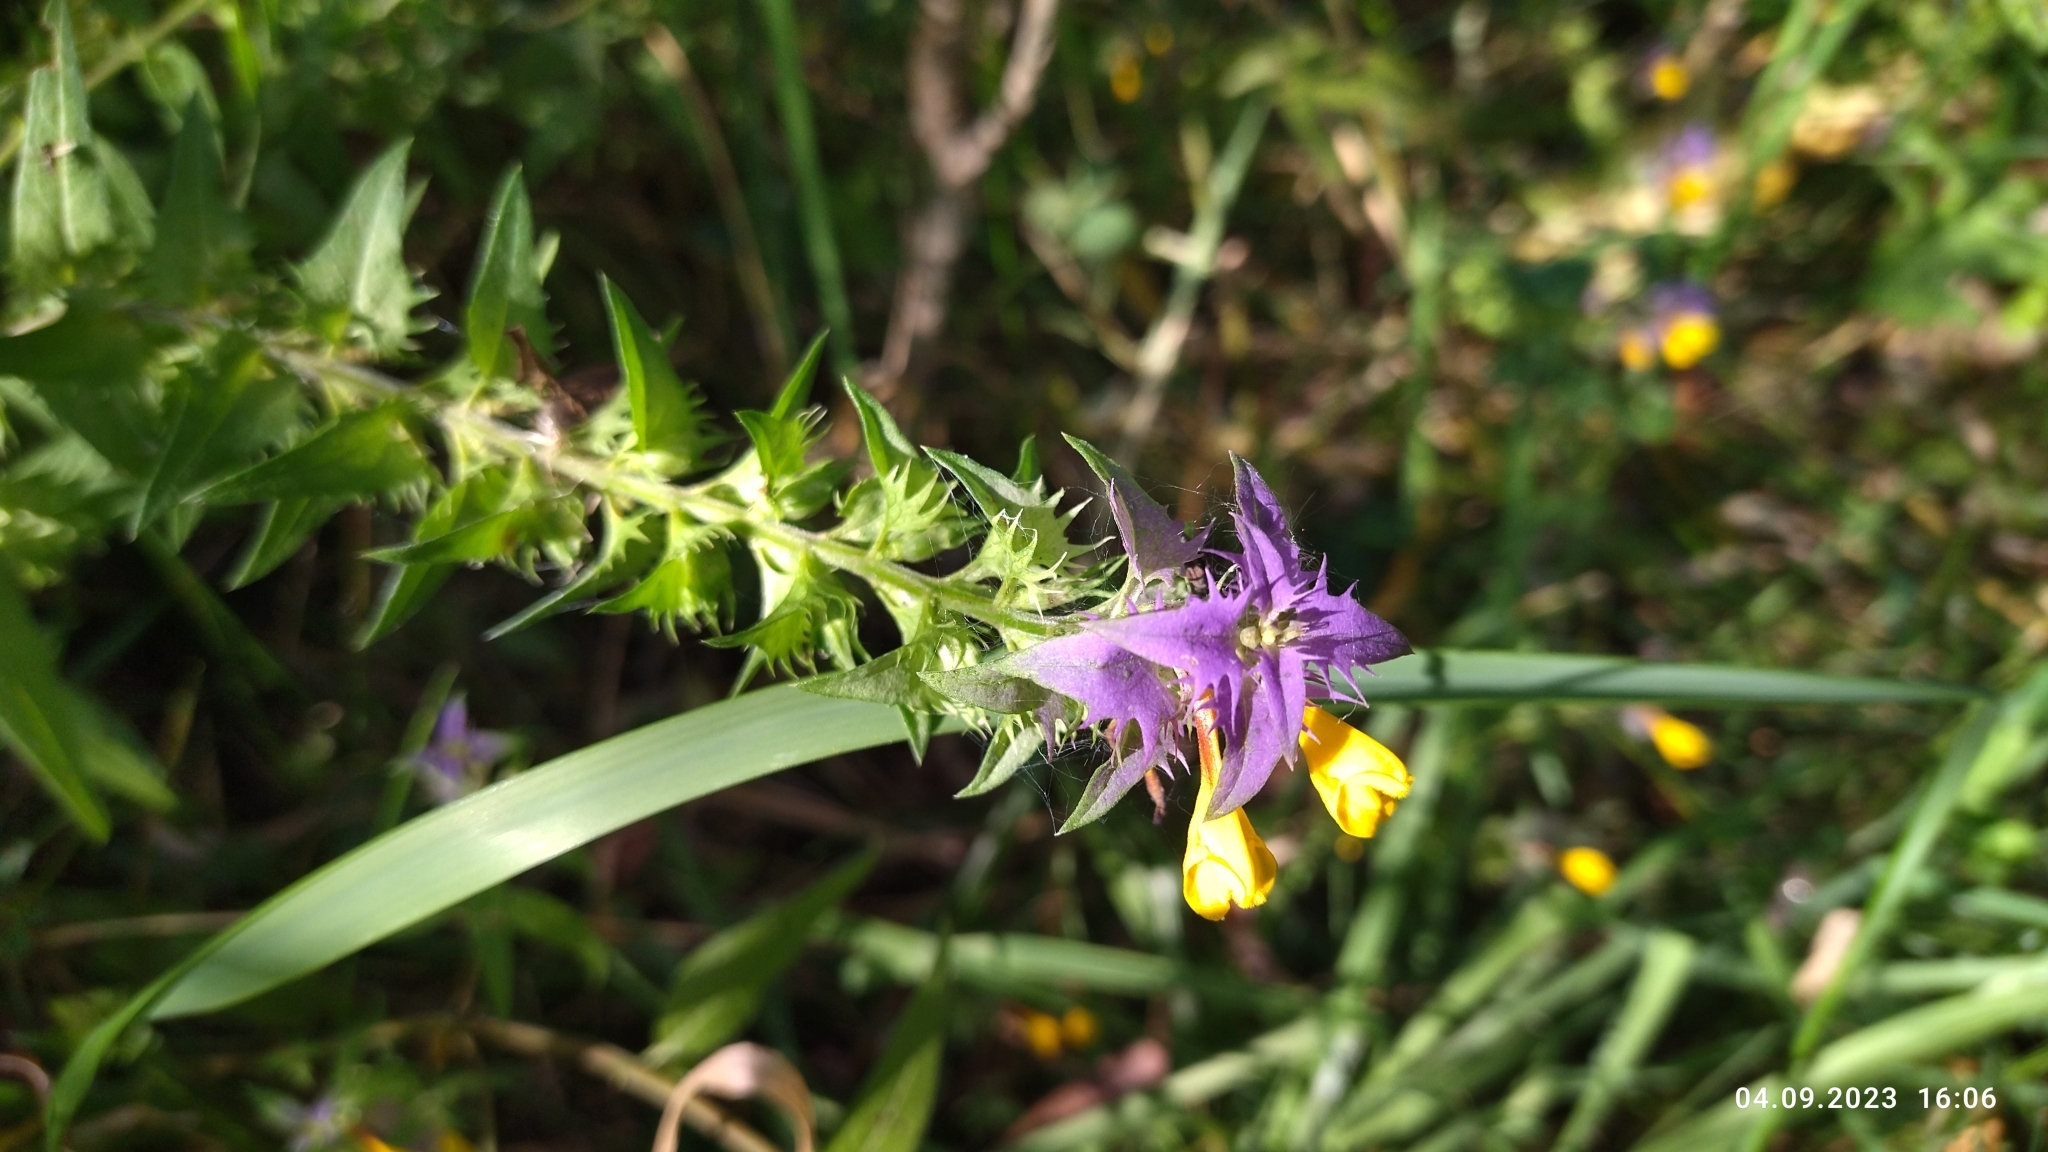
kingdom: Plantae
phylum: Tracheophyta
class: Magnoliopsida
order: Lamiales
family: Orobanchaceae
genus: Melampyrum
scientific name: Melampyrum nemorosum
